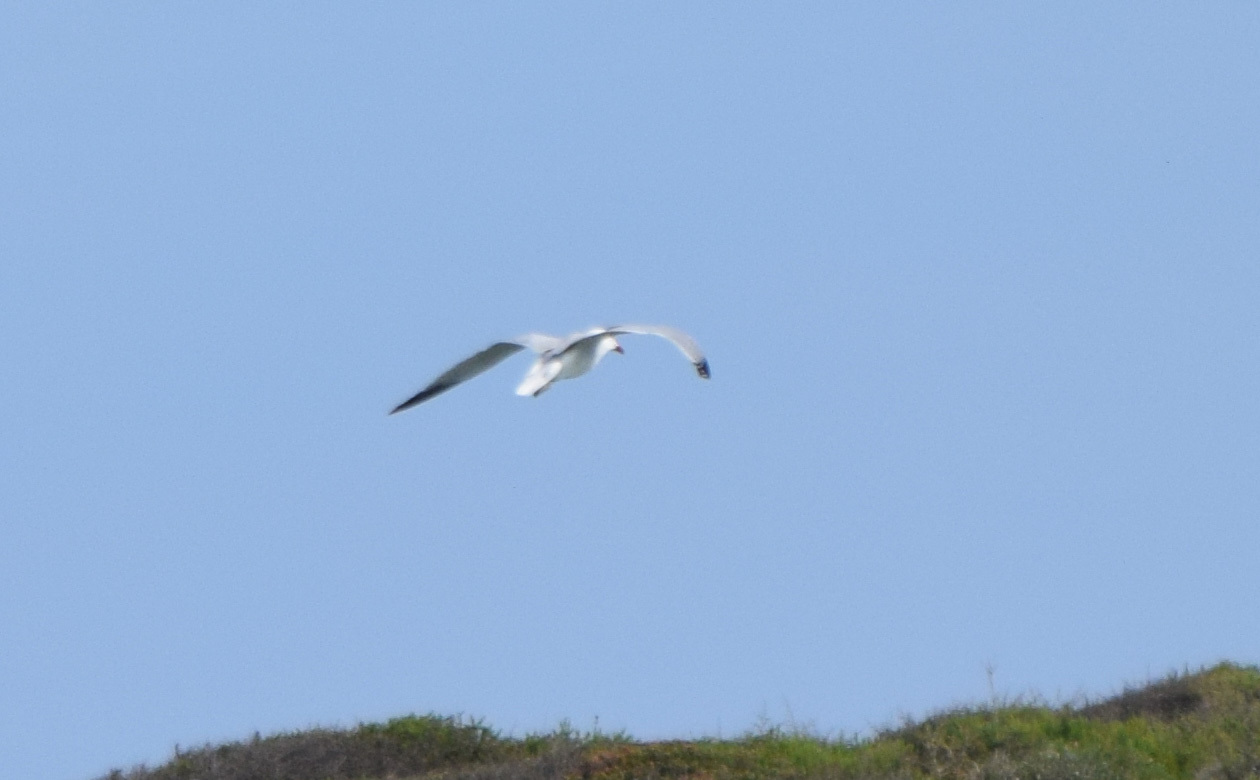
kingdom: Animalia
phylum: Chordata
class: Aves
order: Charadriiformes
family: Laridae
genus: Ichthyaetus
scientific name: Ichthyaetus audouinii
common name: Audouin's gull
